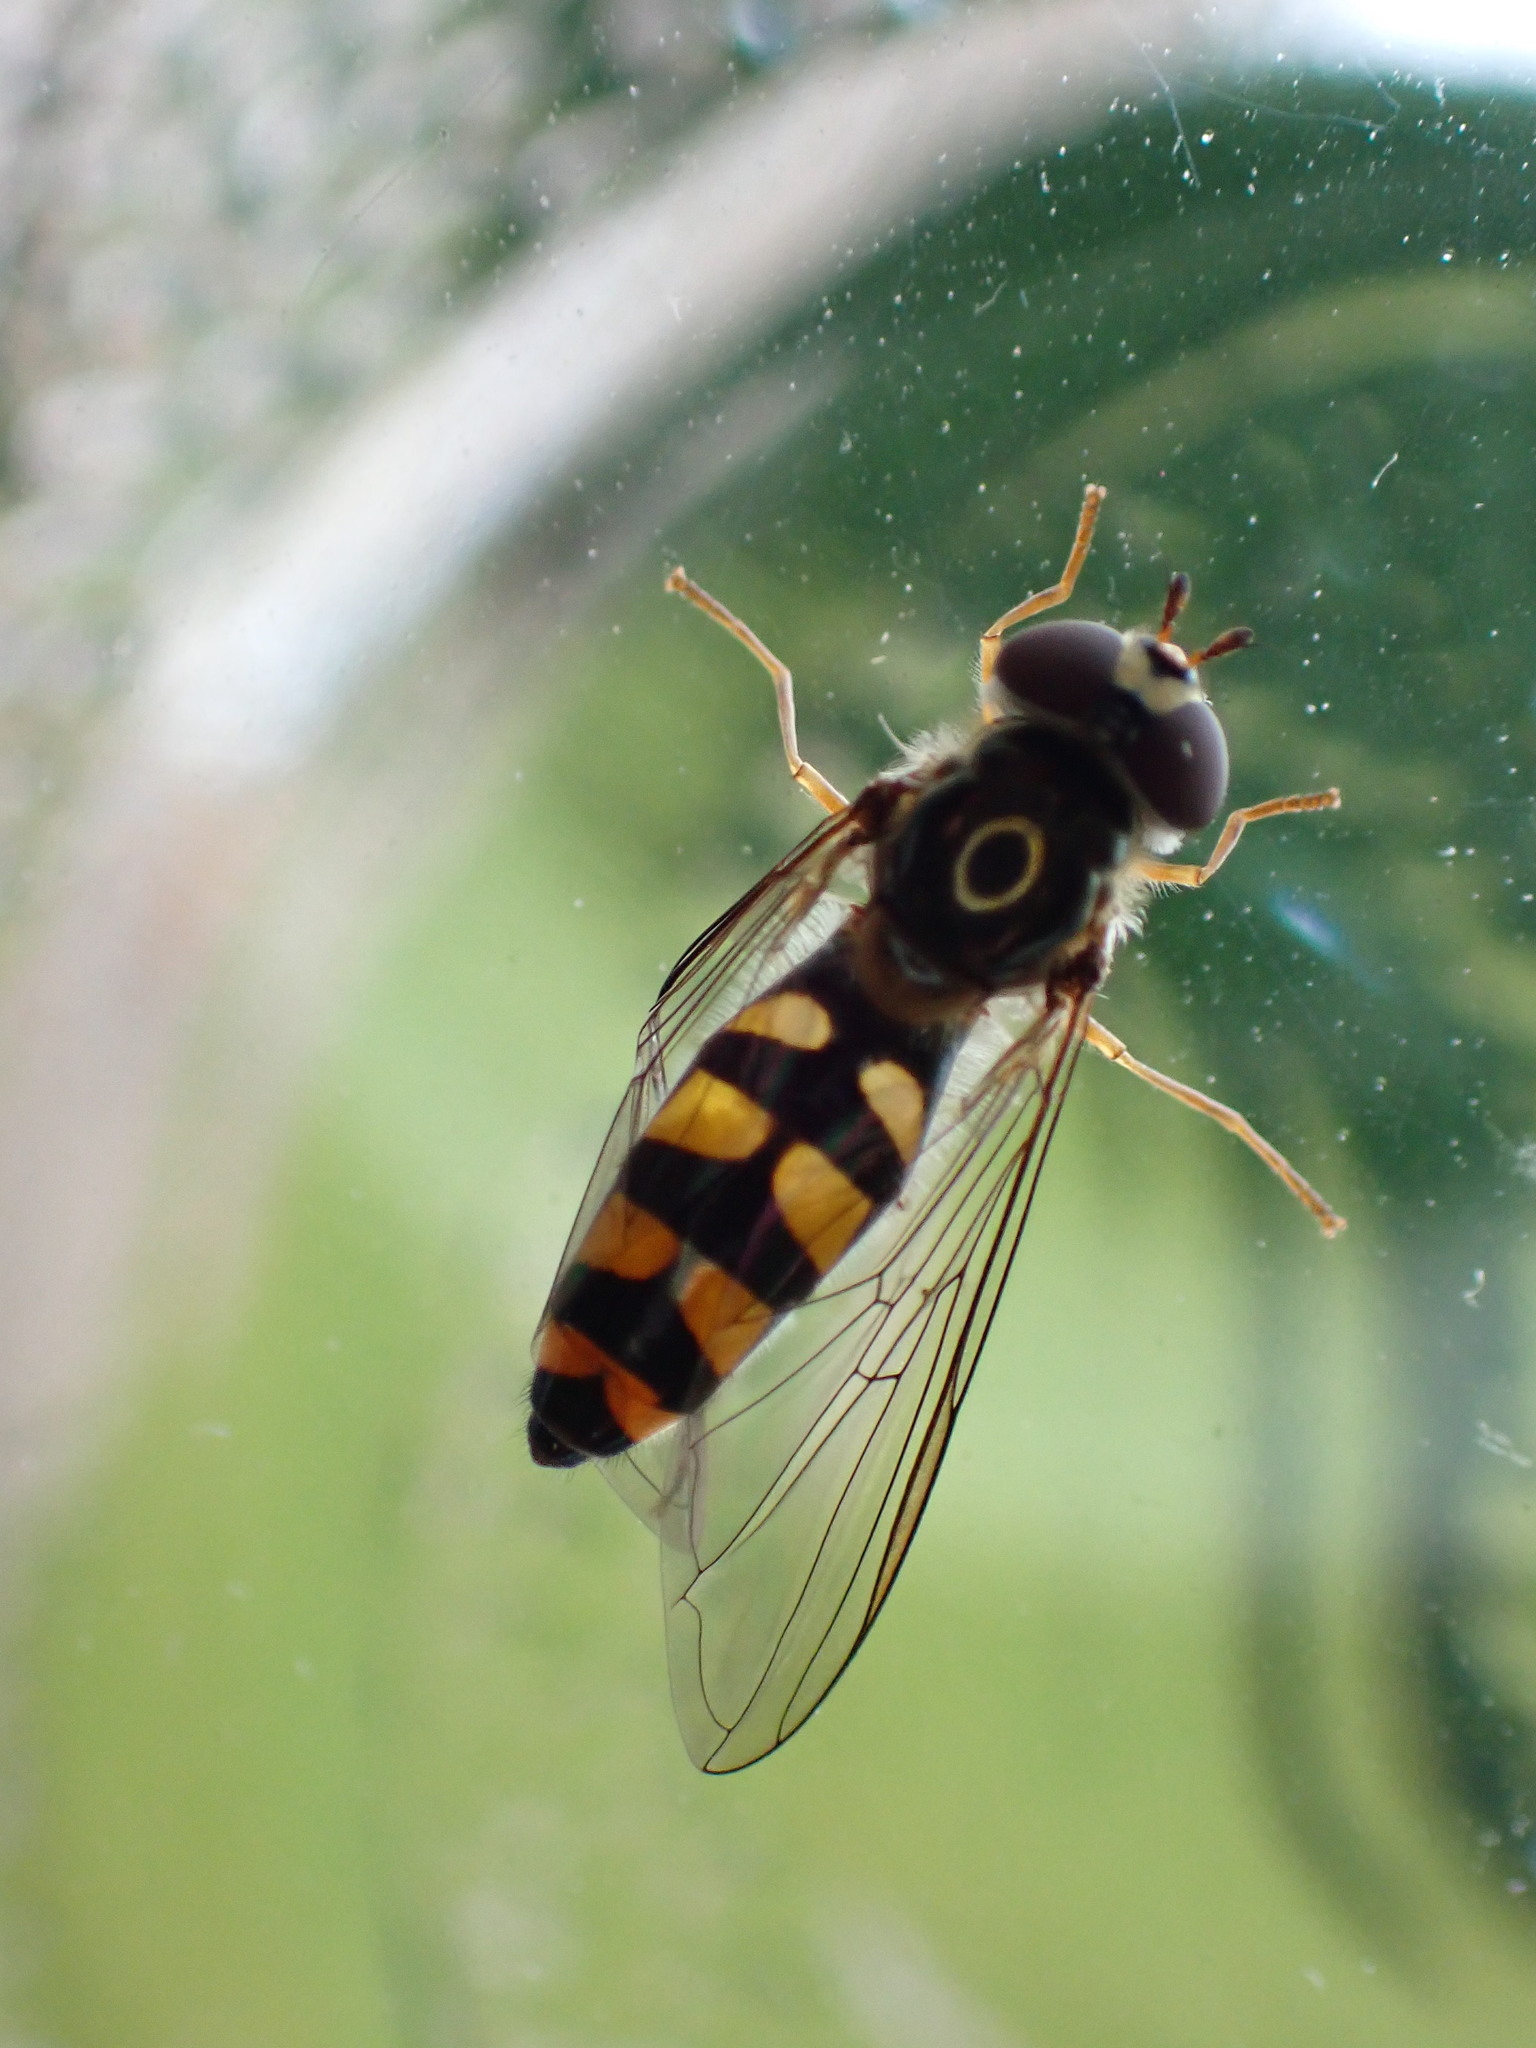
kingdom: Animalia
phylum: Arthropoda
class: Insecta
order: Diptera
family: Syrphidae
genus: Meliscaeva
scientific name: Meliscaeva auricollis
